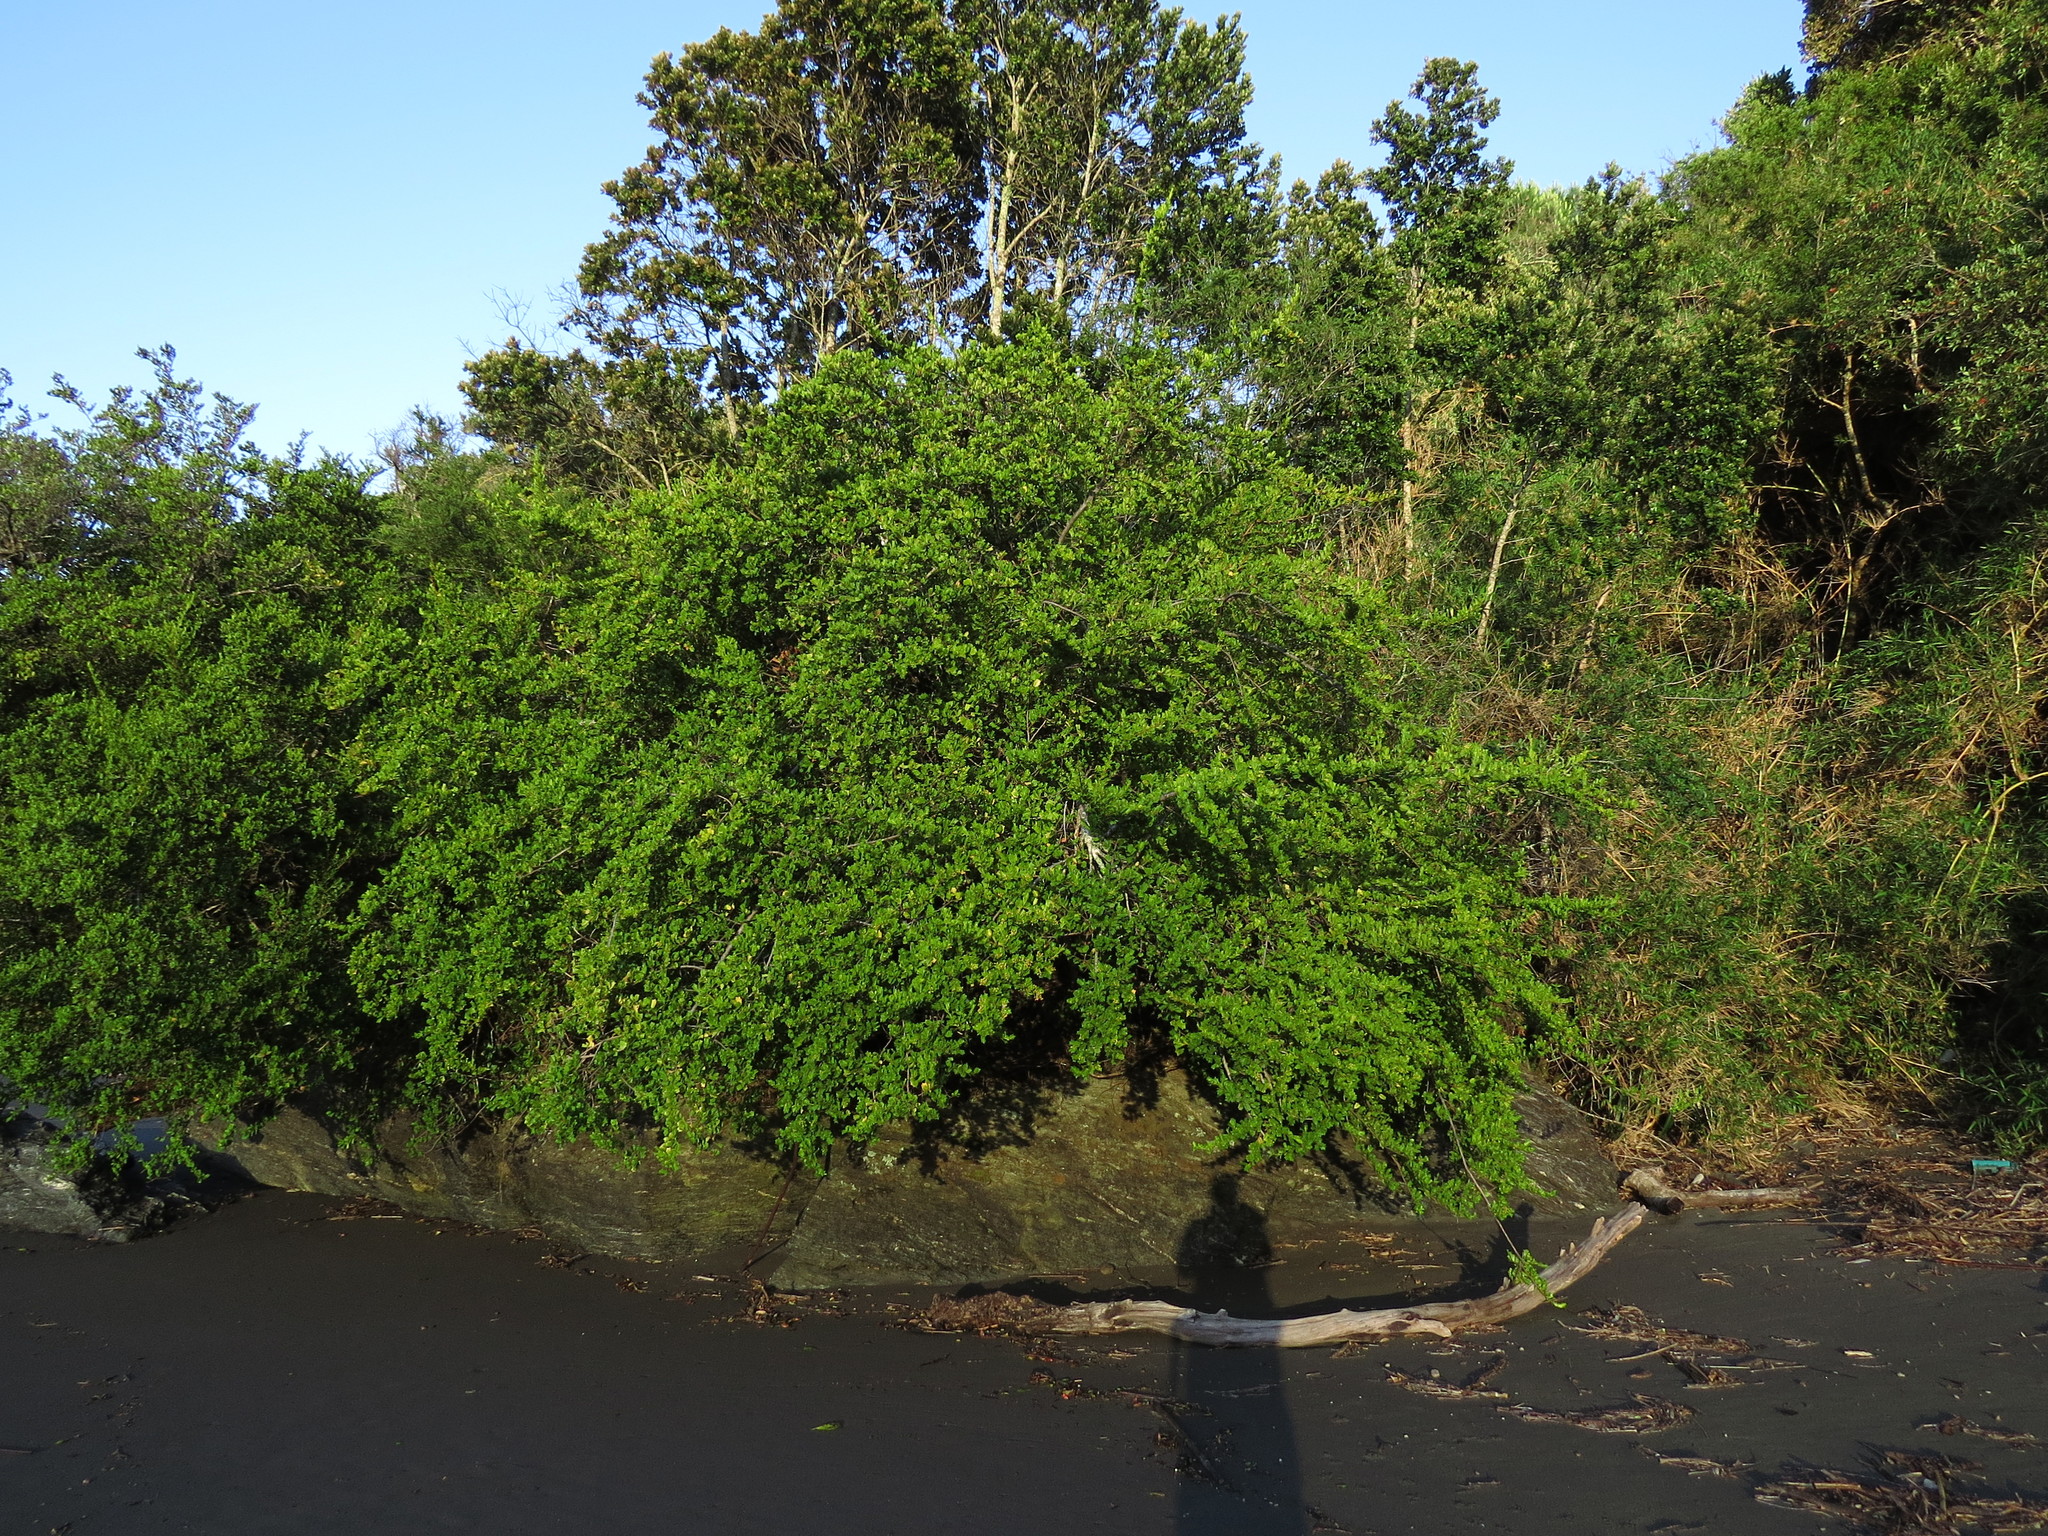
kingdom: Plantae
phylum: Tracheophyta
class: Magnoliopsida
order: Apiales
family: Griseliniaceae
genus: Griselinia
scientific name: Griselinia jodinifolia
